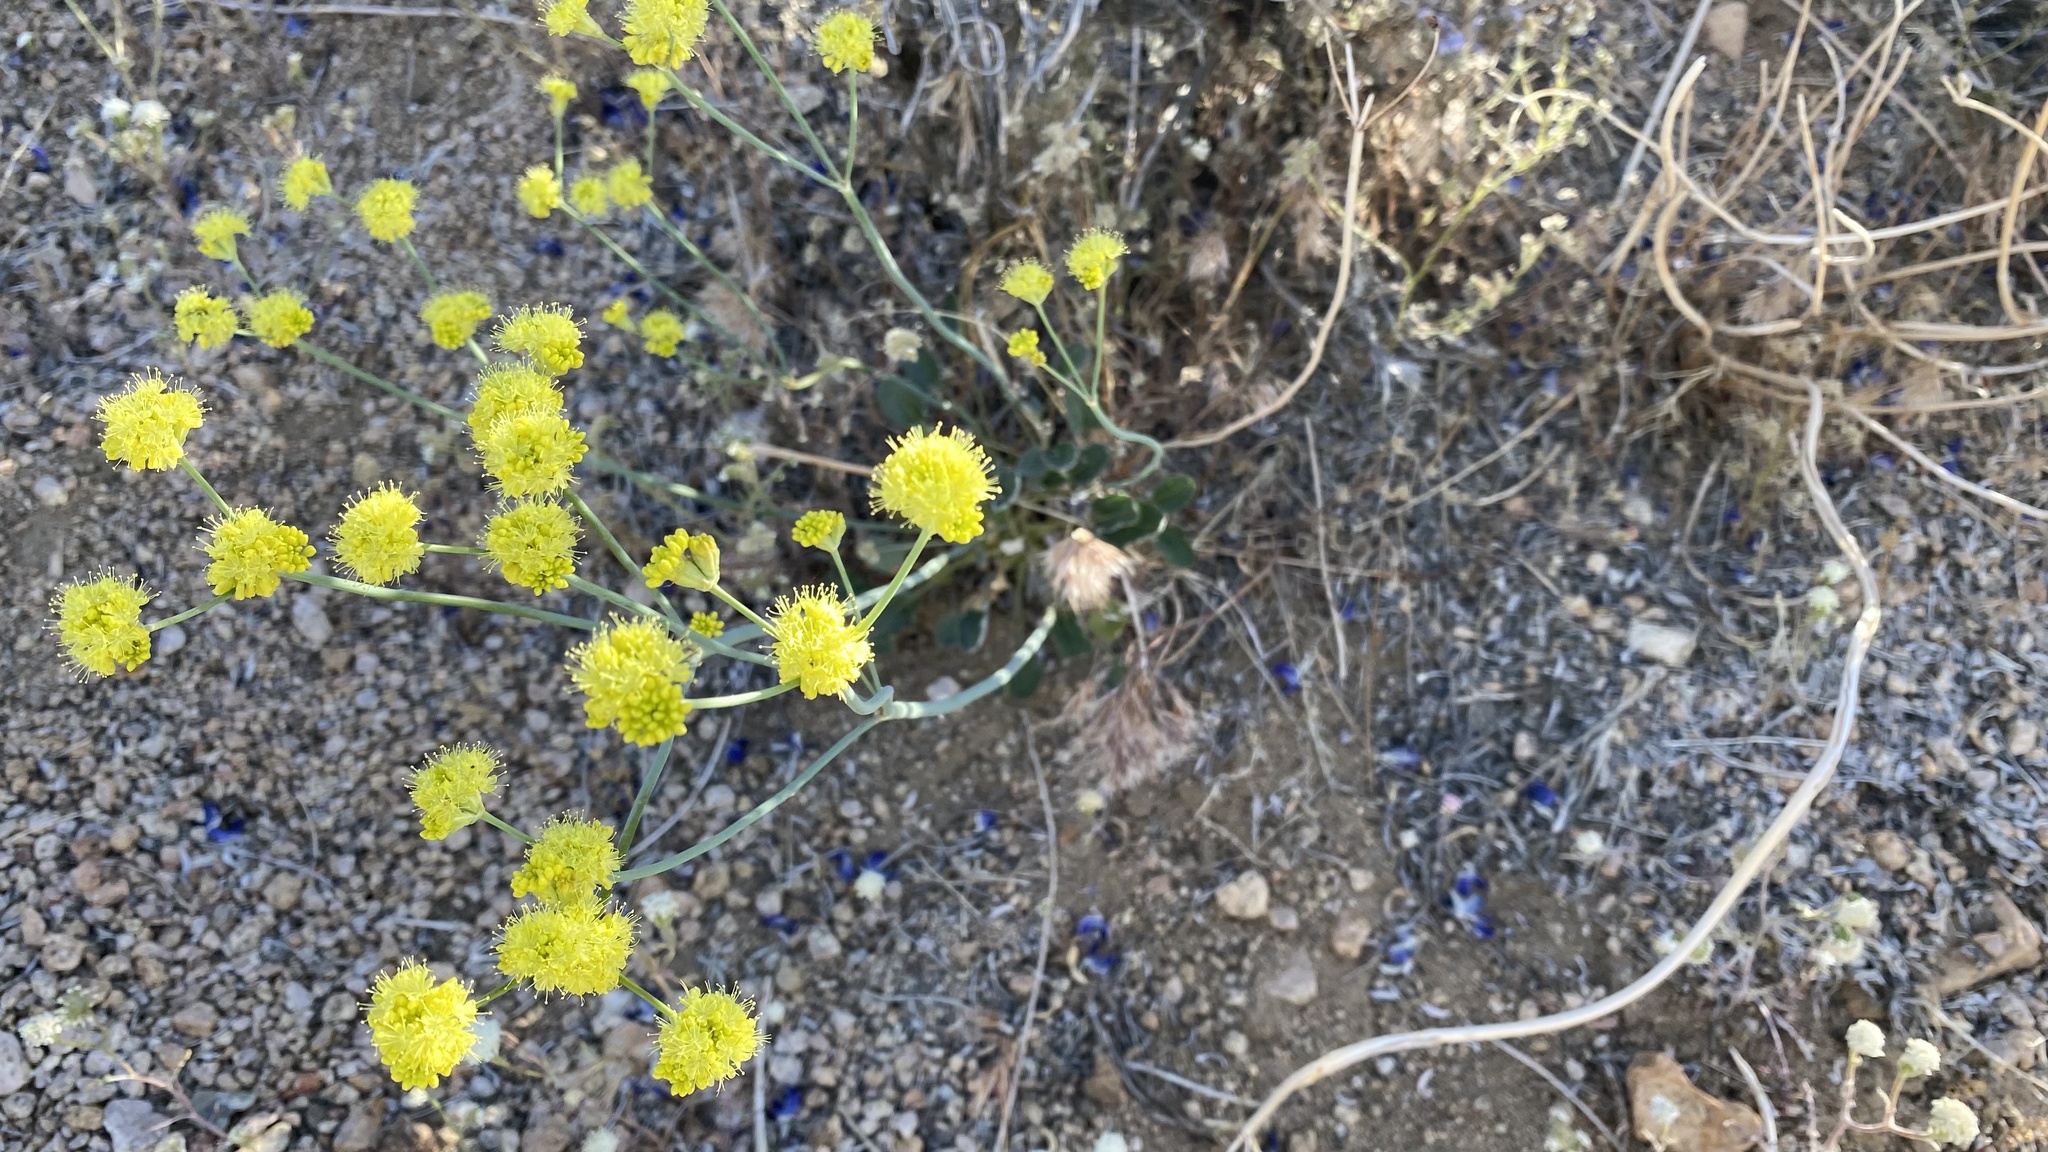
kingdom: Plantae
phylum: Tracheophyta
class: Magnoliopsida
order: Caryophyllales
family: Polygonaceae
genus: Eriogonum
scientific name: Eriogonum nudum
